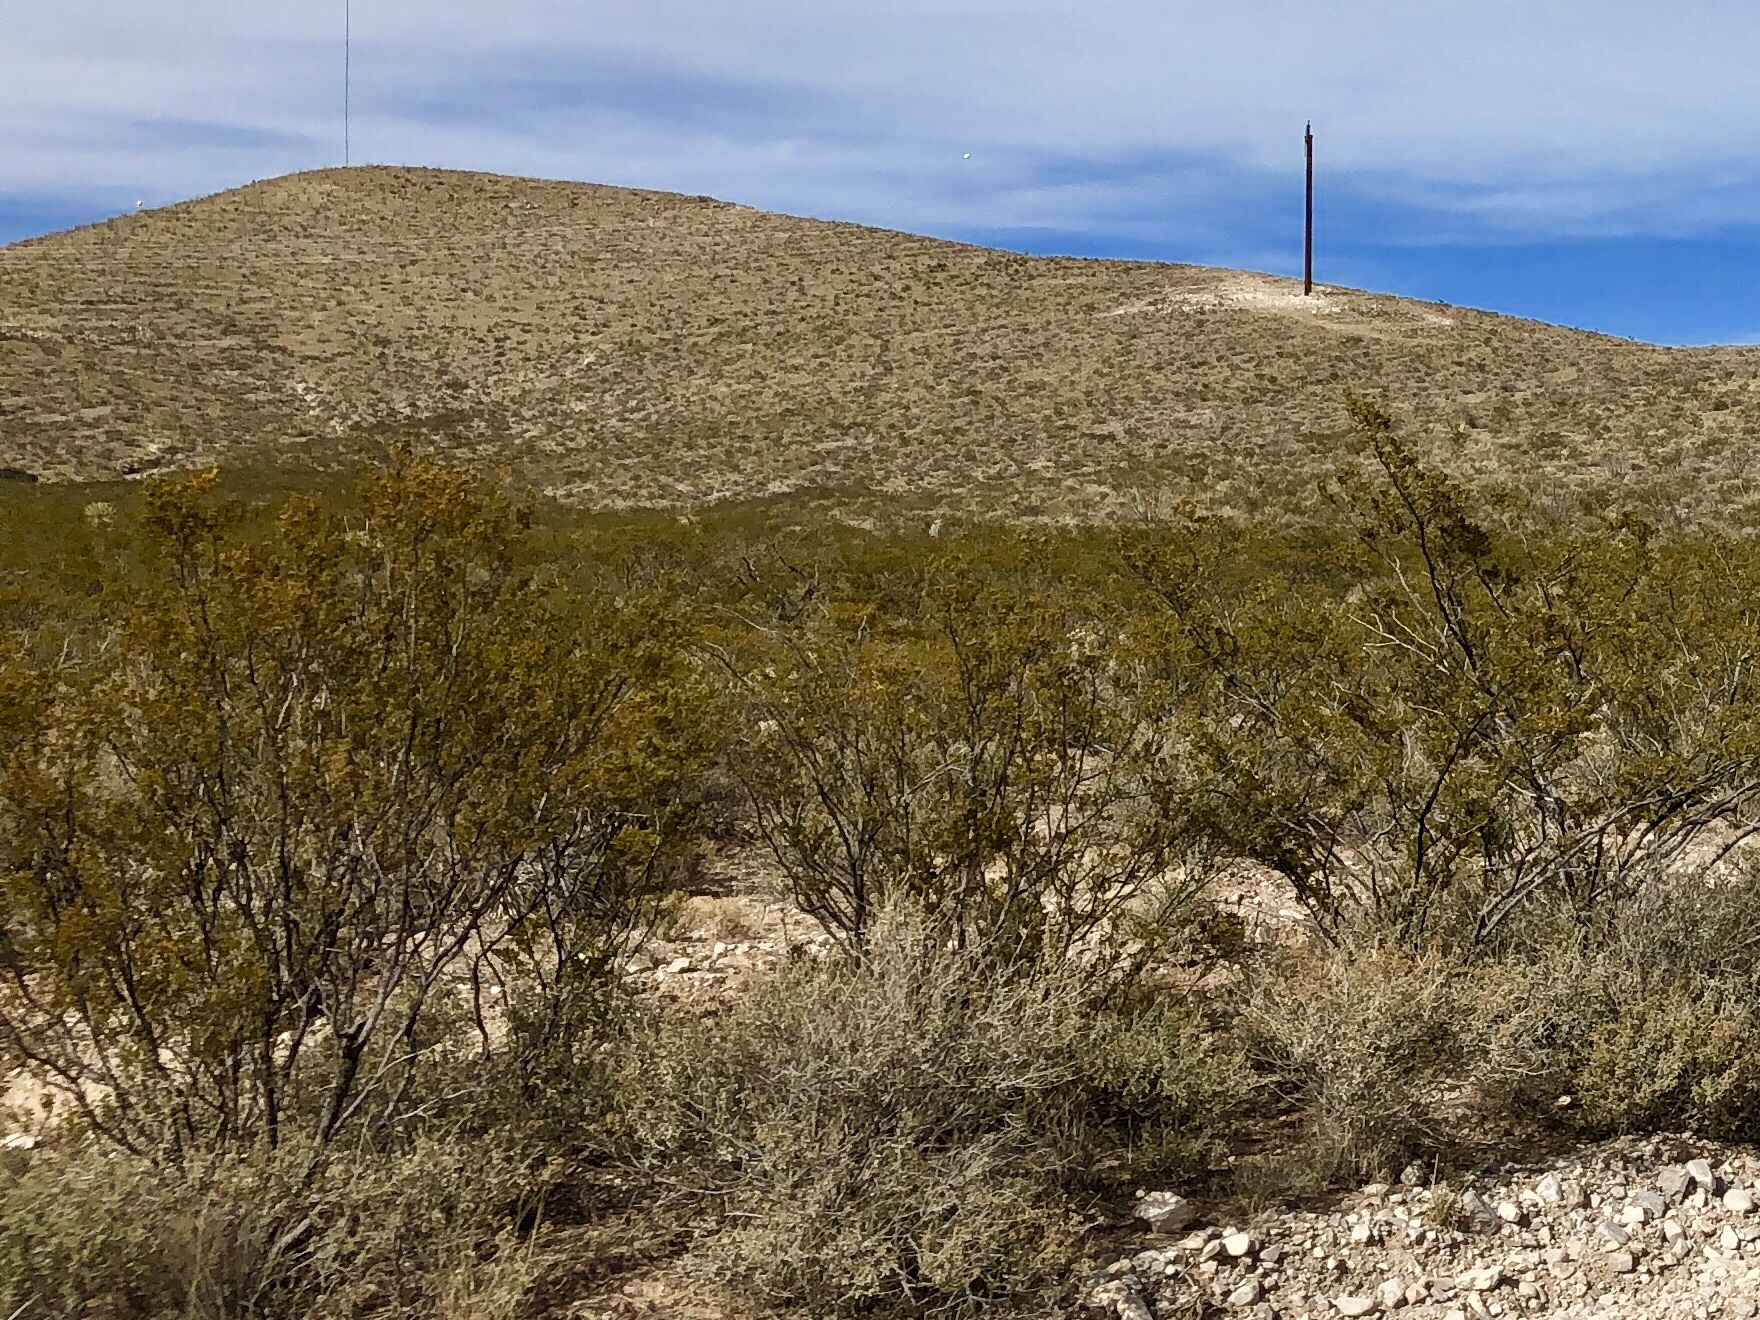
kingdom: Plantae
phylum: Tracheophyta
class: Magnoliopsida
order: Zygophyllales
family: Zygophyllaceae
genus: Larrea
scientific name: Larrea tridentata
